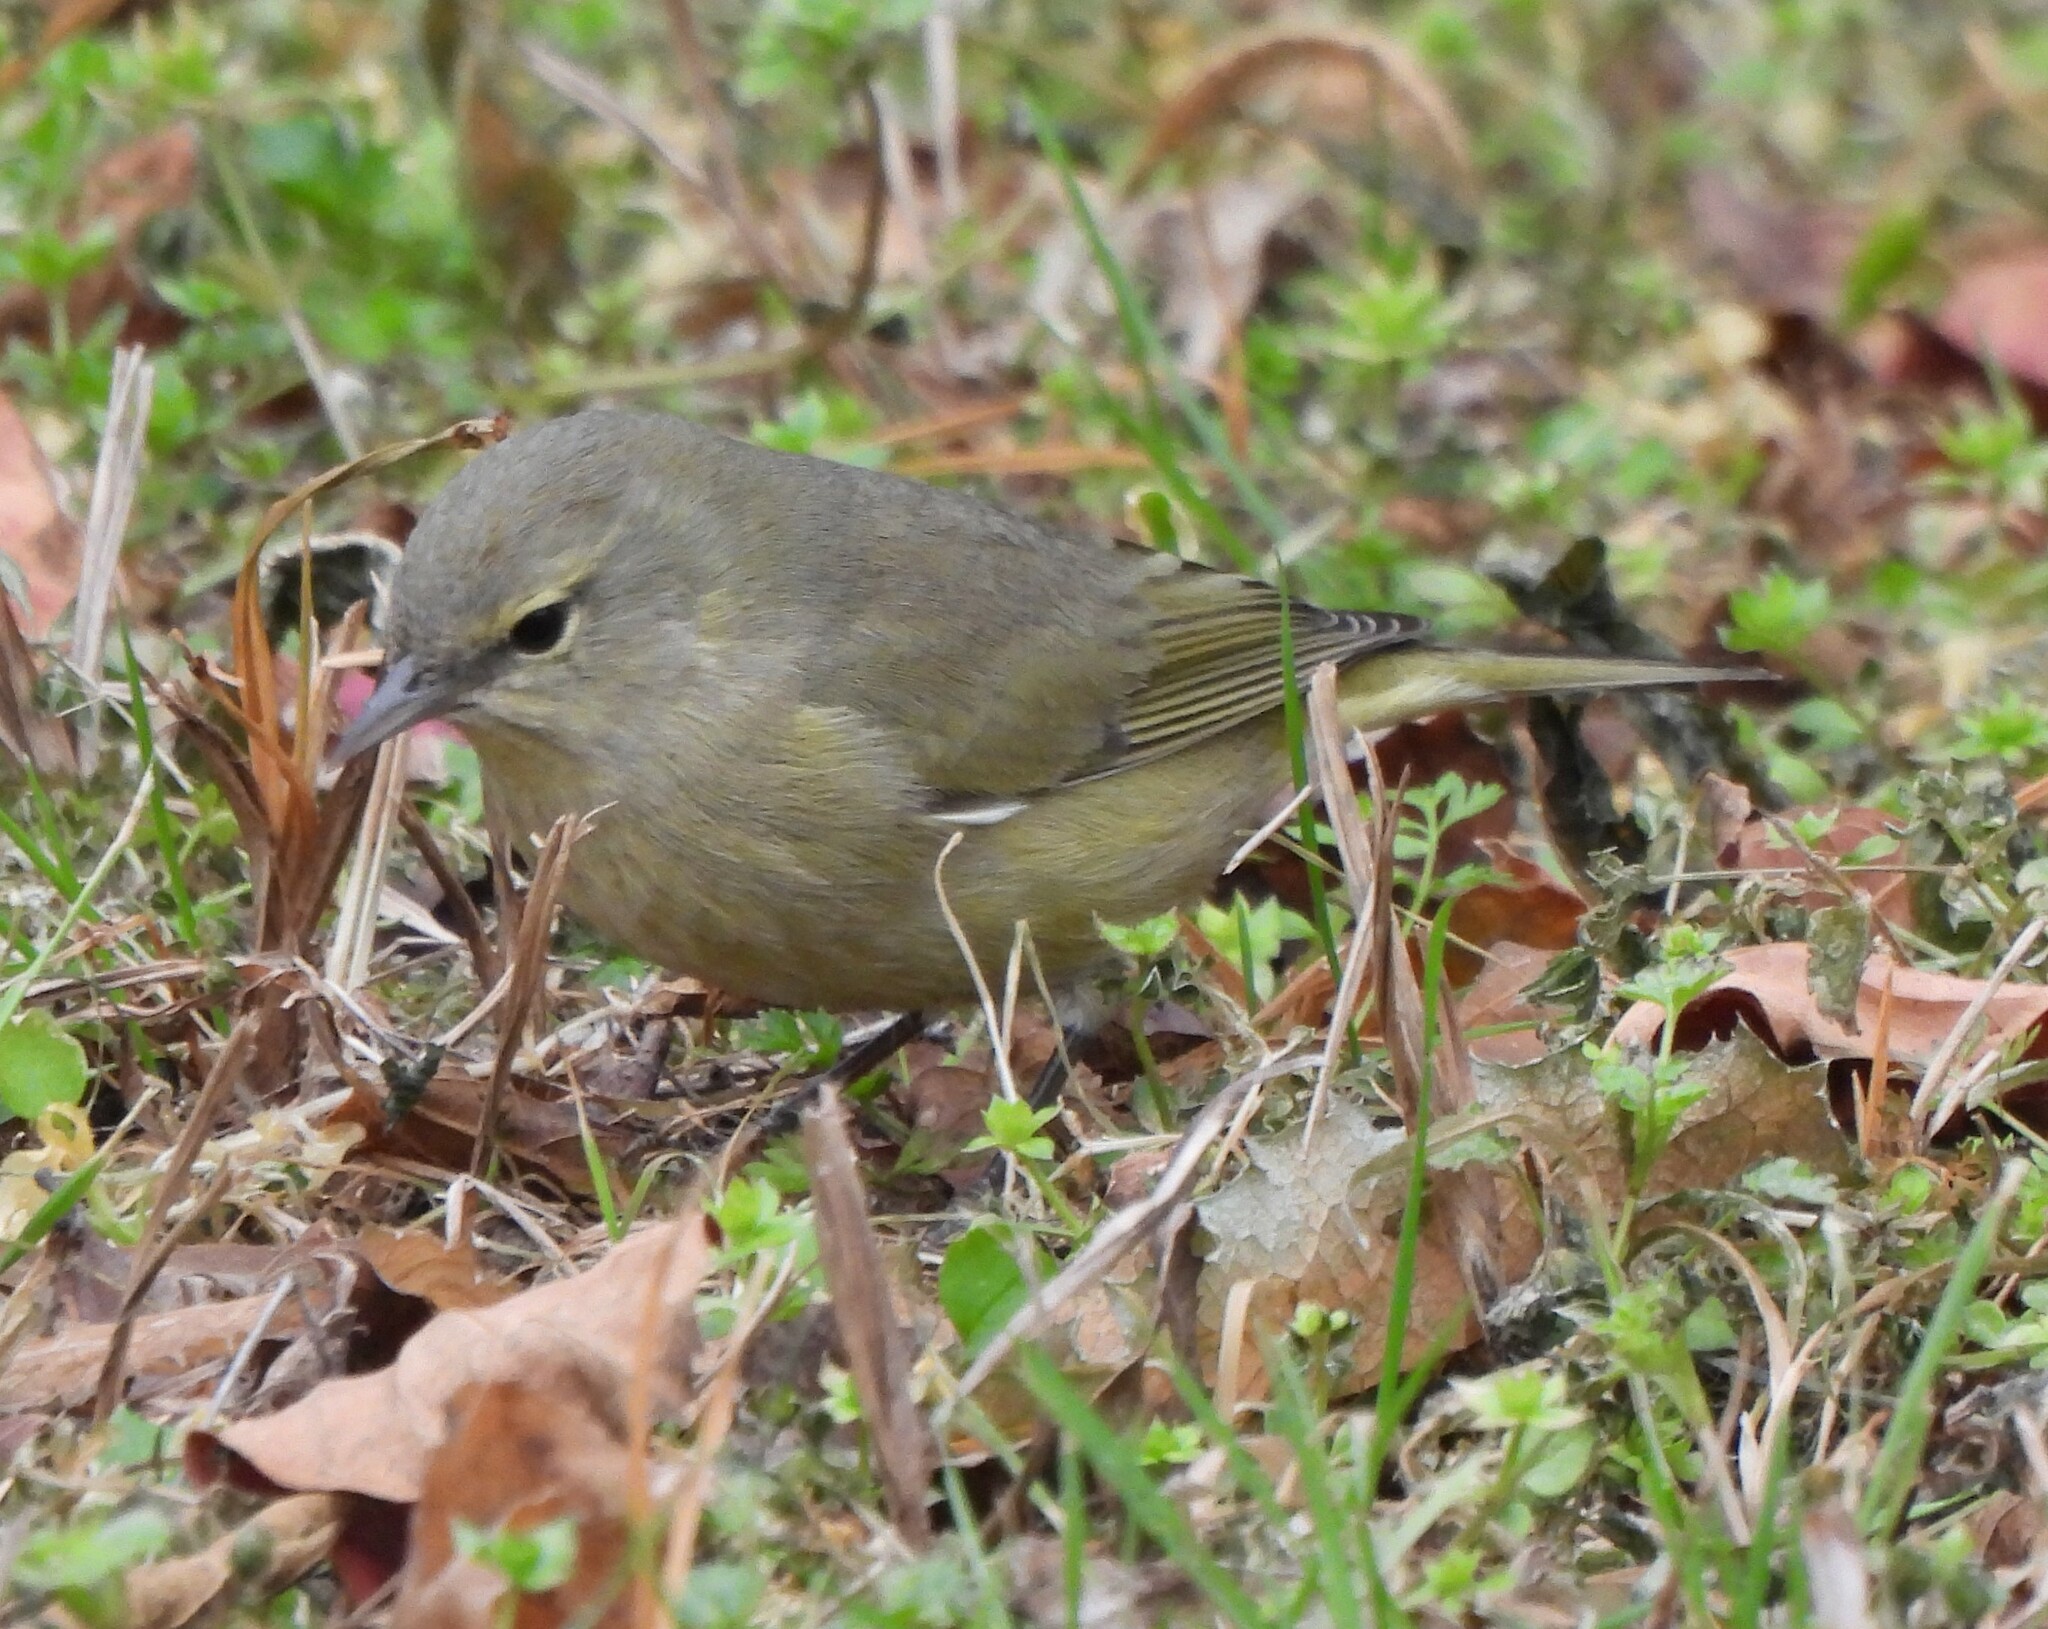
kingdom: Animalia
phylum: Chordata
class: Aves
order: Passeriformes
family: Parulidae
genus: Leiothlypis
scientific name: Leiothlypis celata
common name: Orange-crowned warbler
